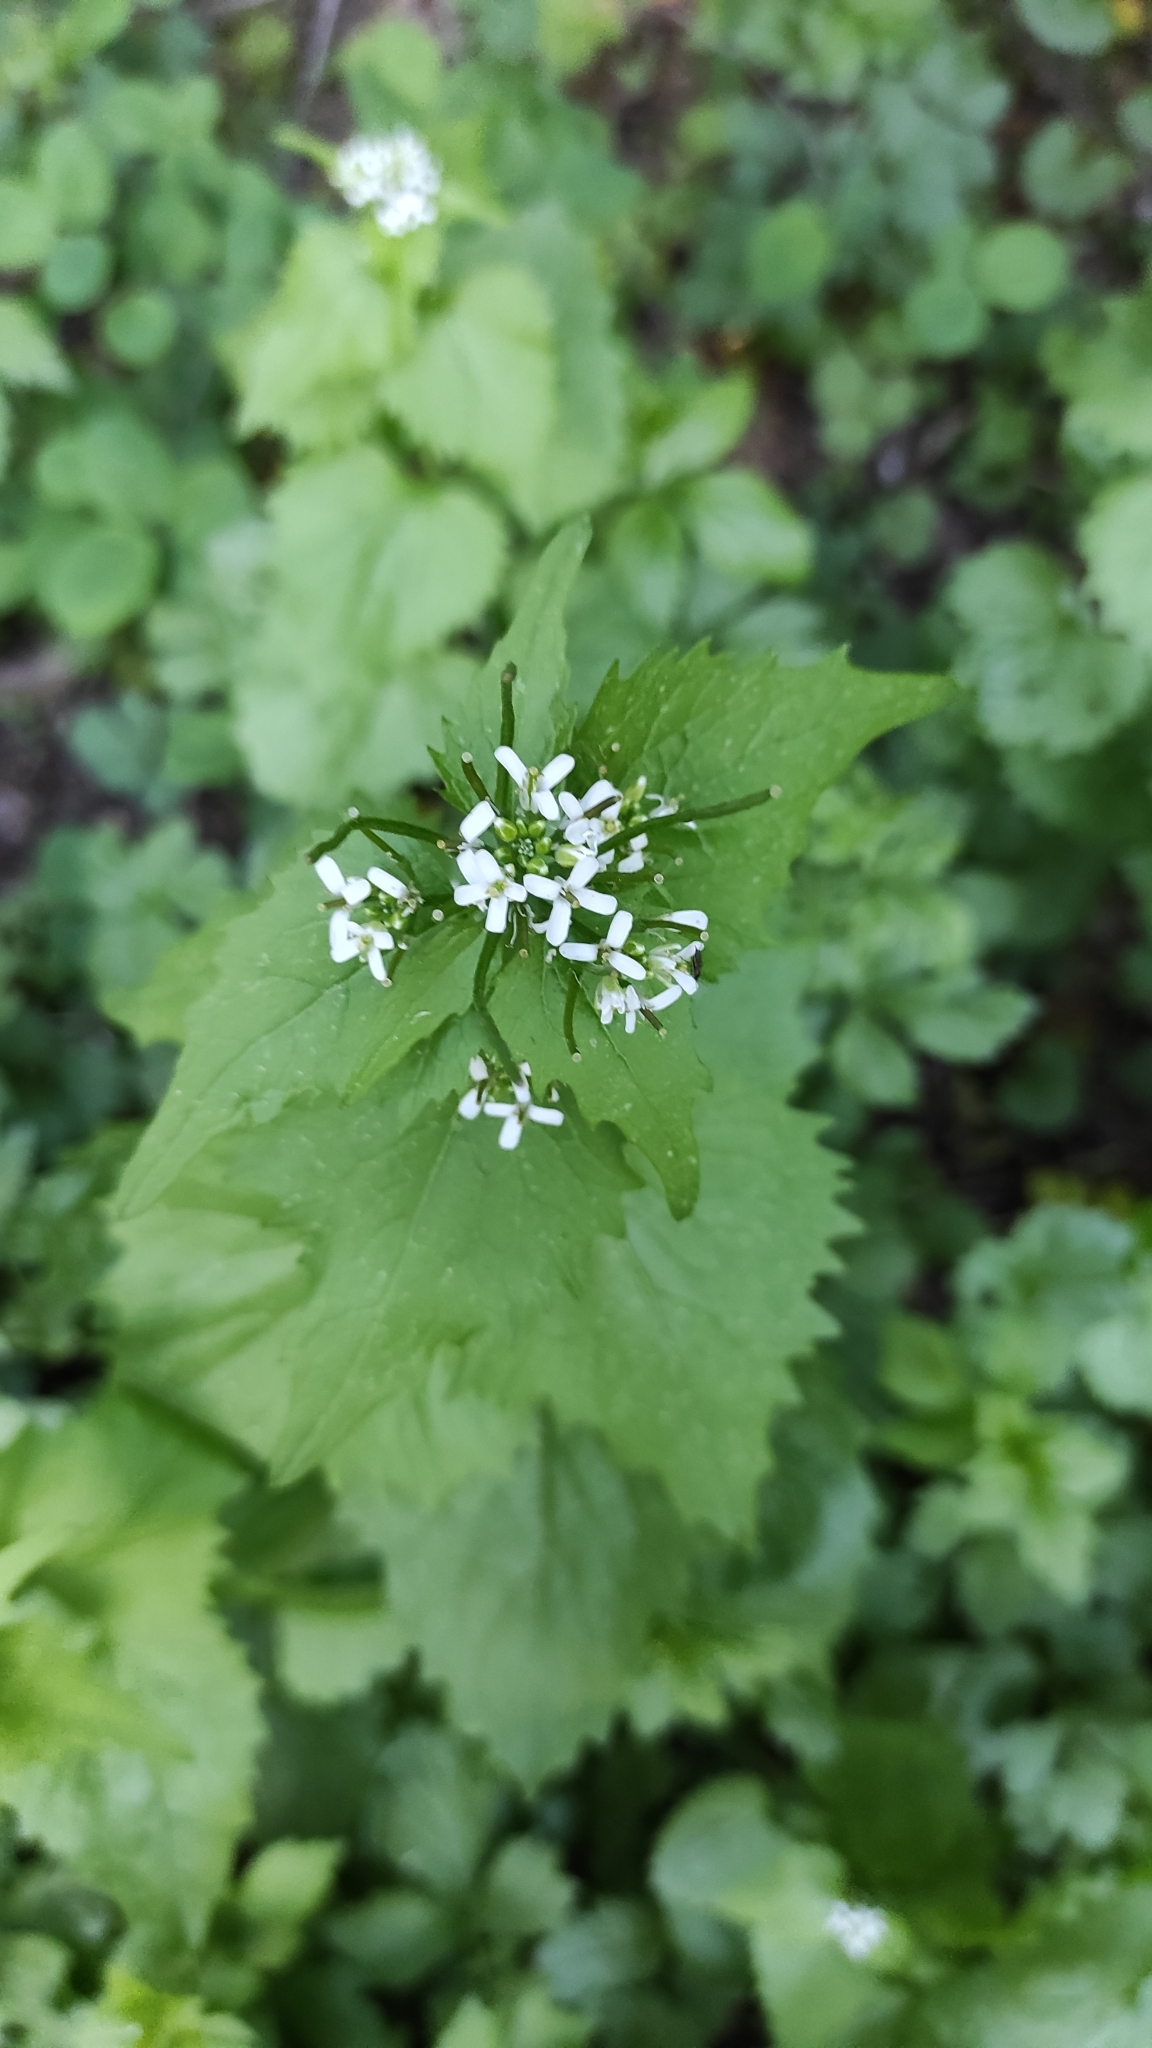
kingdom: Plantae
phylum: Tracheophyta
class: Magnoliopsida
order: Brassicales
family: Brassicaceae
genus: Alliaria
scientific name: Alliaria petiolata
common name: Garlic mustard
